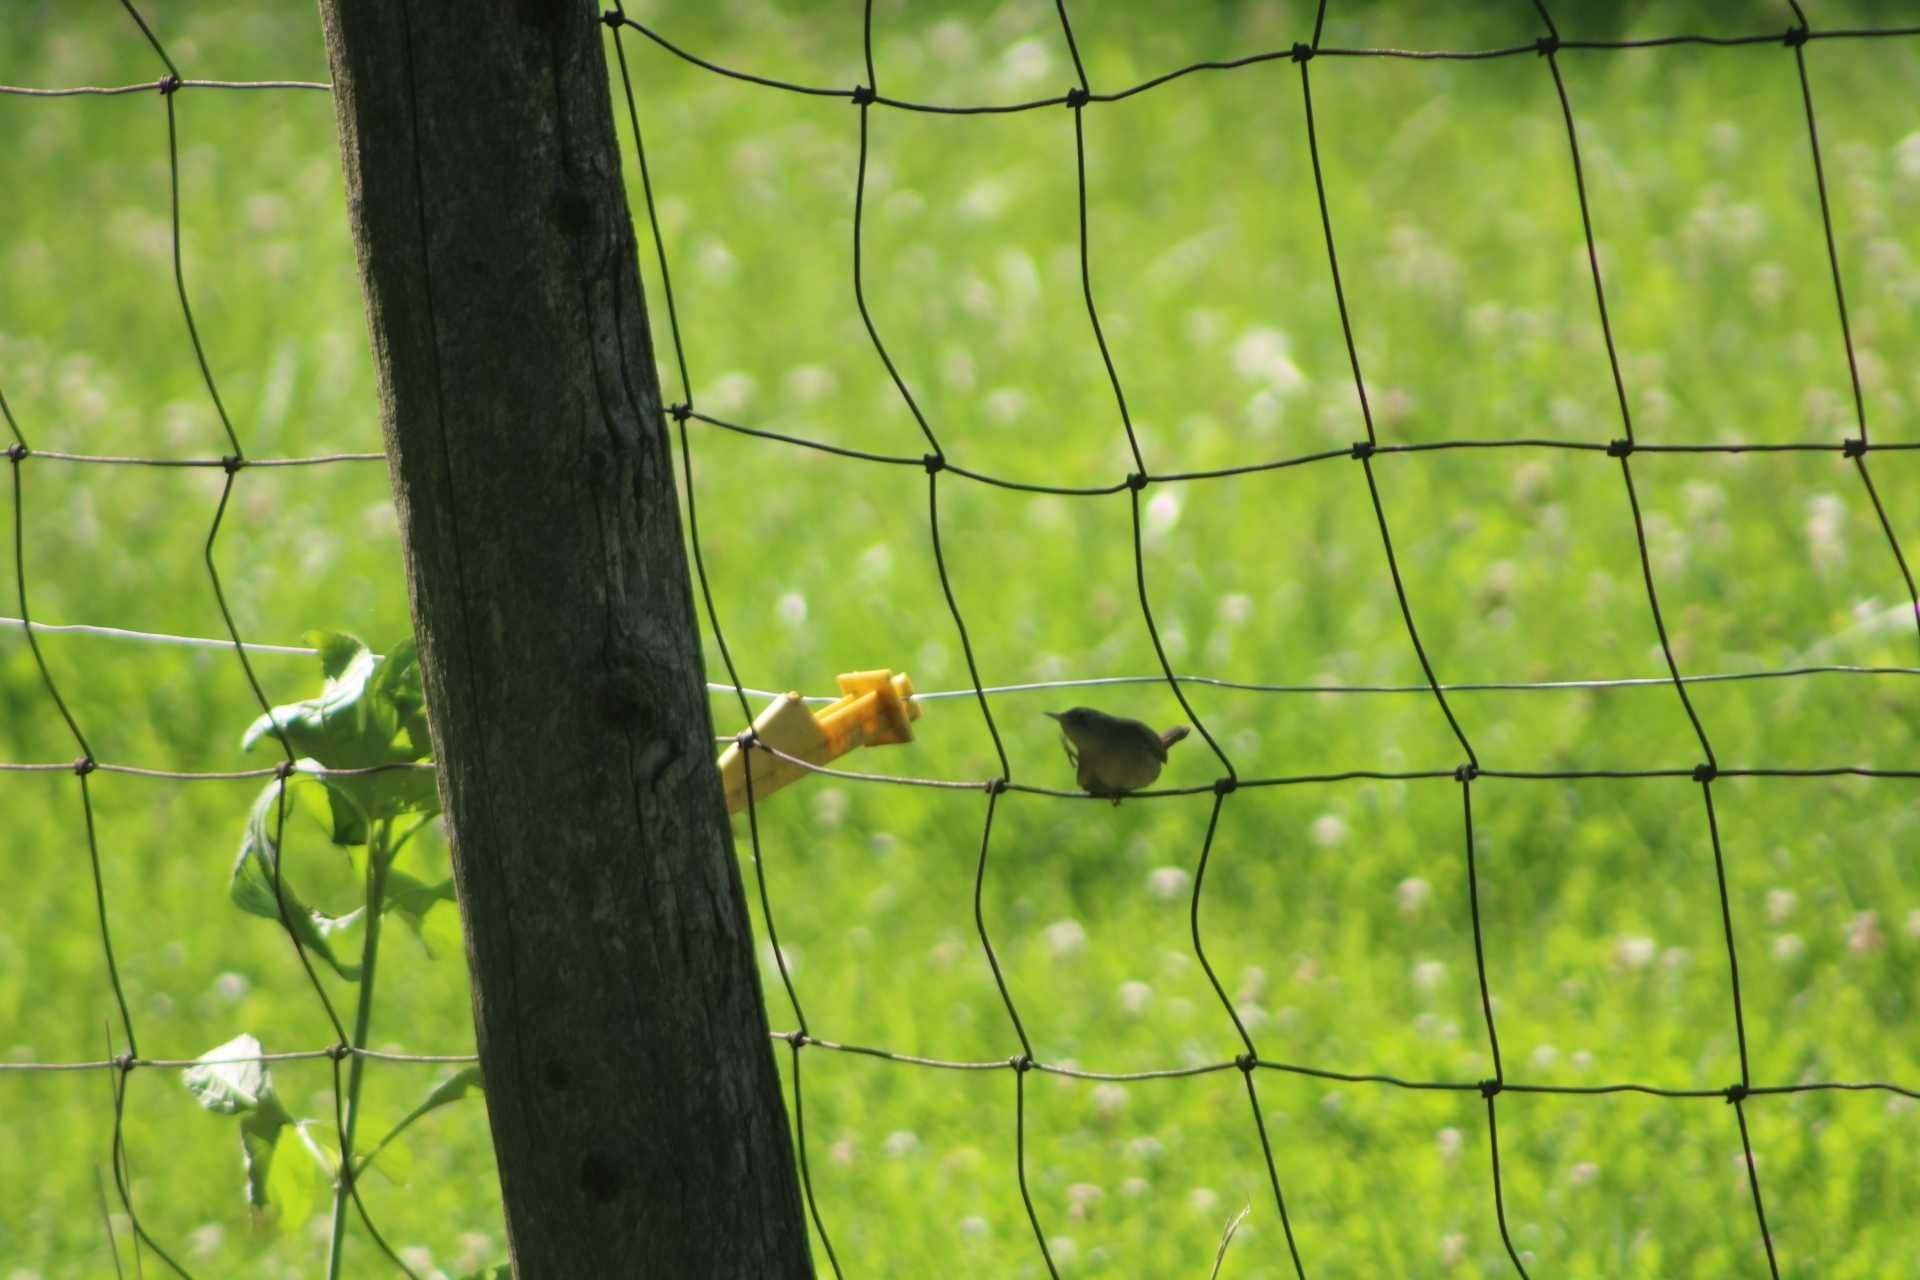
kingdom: Animalia
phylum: Chordata
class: Aves
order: Passeriformes
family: Troglodytidae
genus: Troglodytes
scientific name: Troglodytes aedon
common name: House wren
